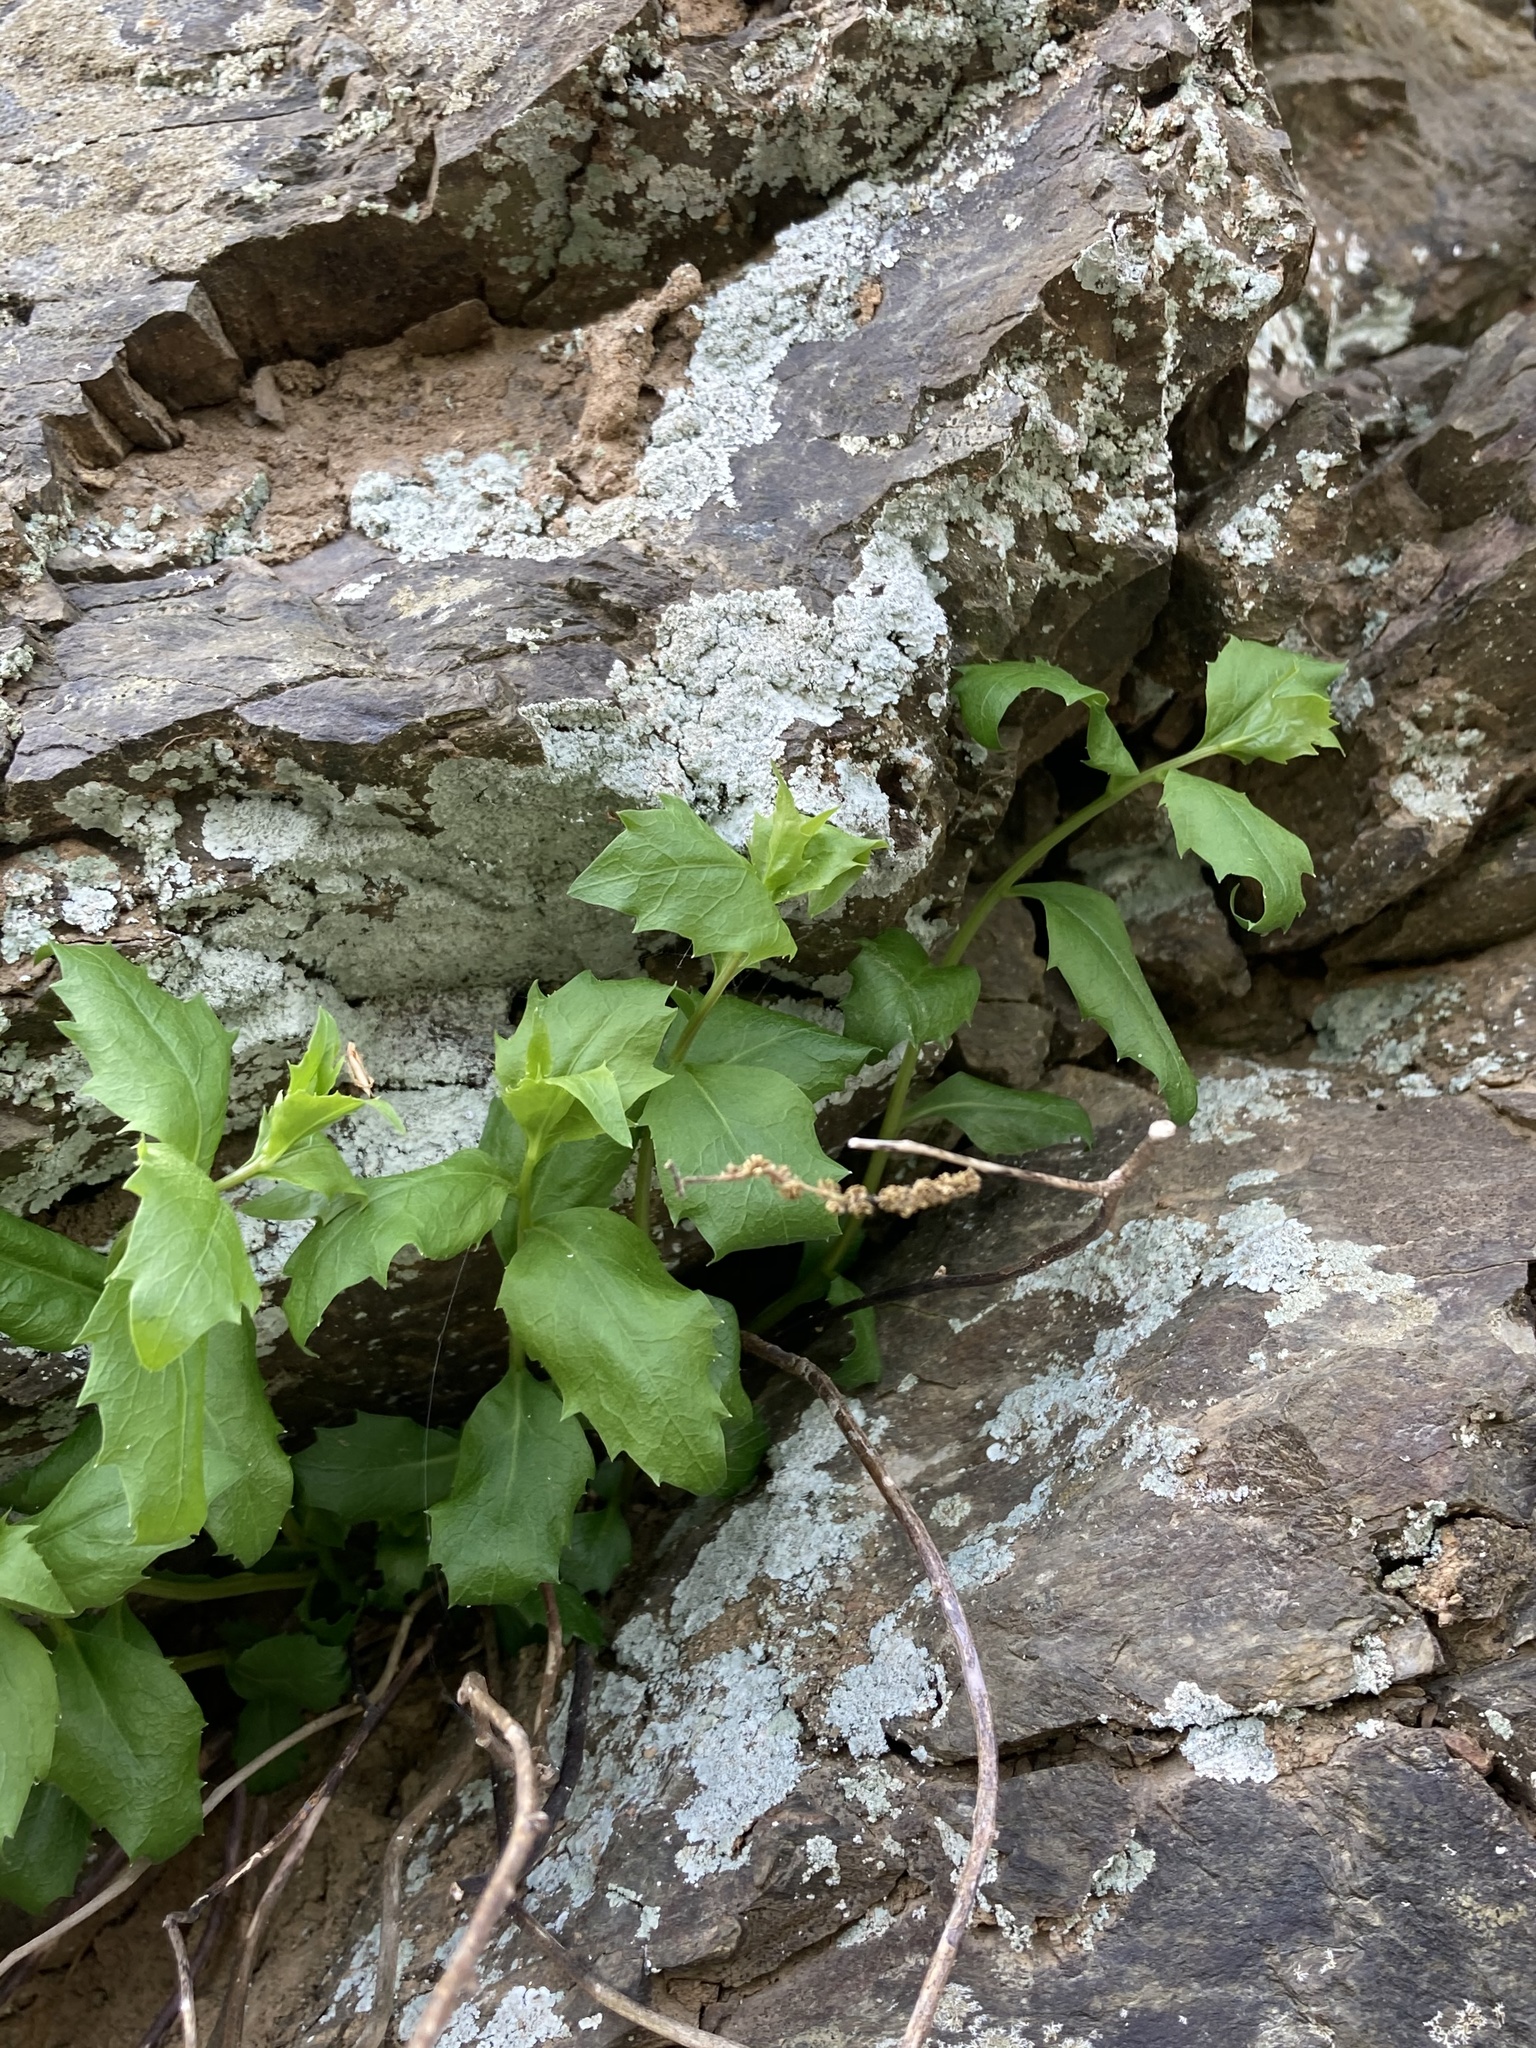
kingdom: Plantae
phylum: Tracheophyta
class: Magnoliopsida
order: Asterales
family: Campanulaceae
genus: Campanula
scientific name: Campanula divaricata
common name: Appalachian bellflower
